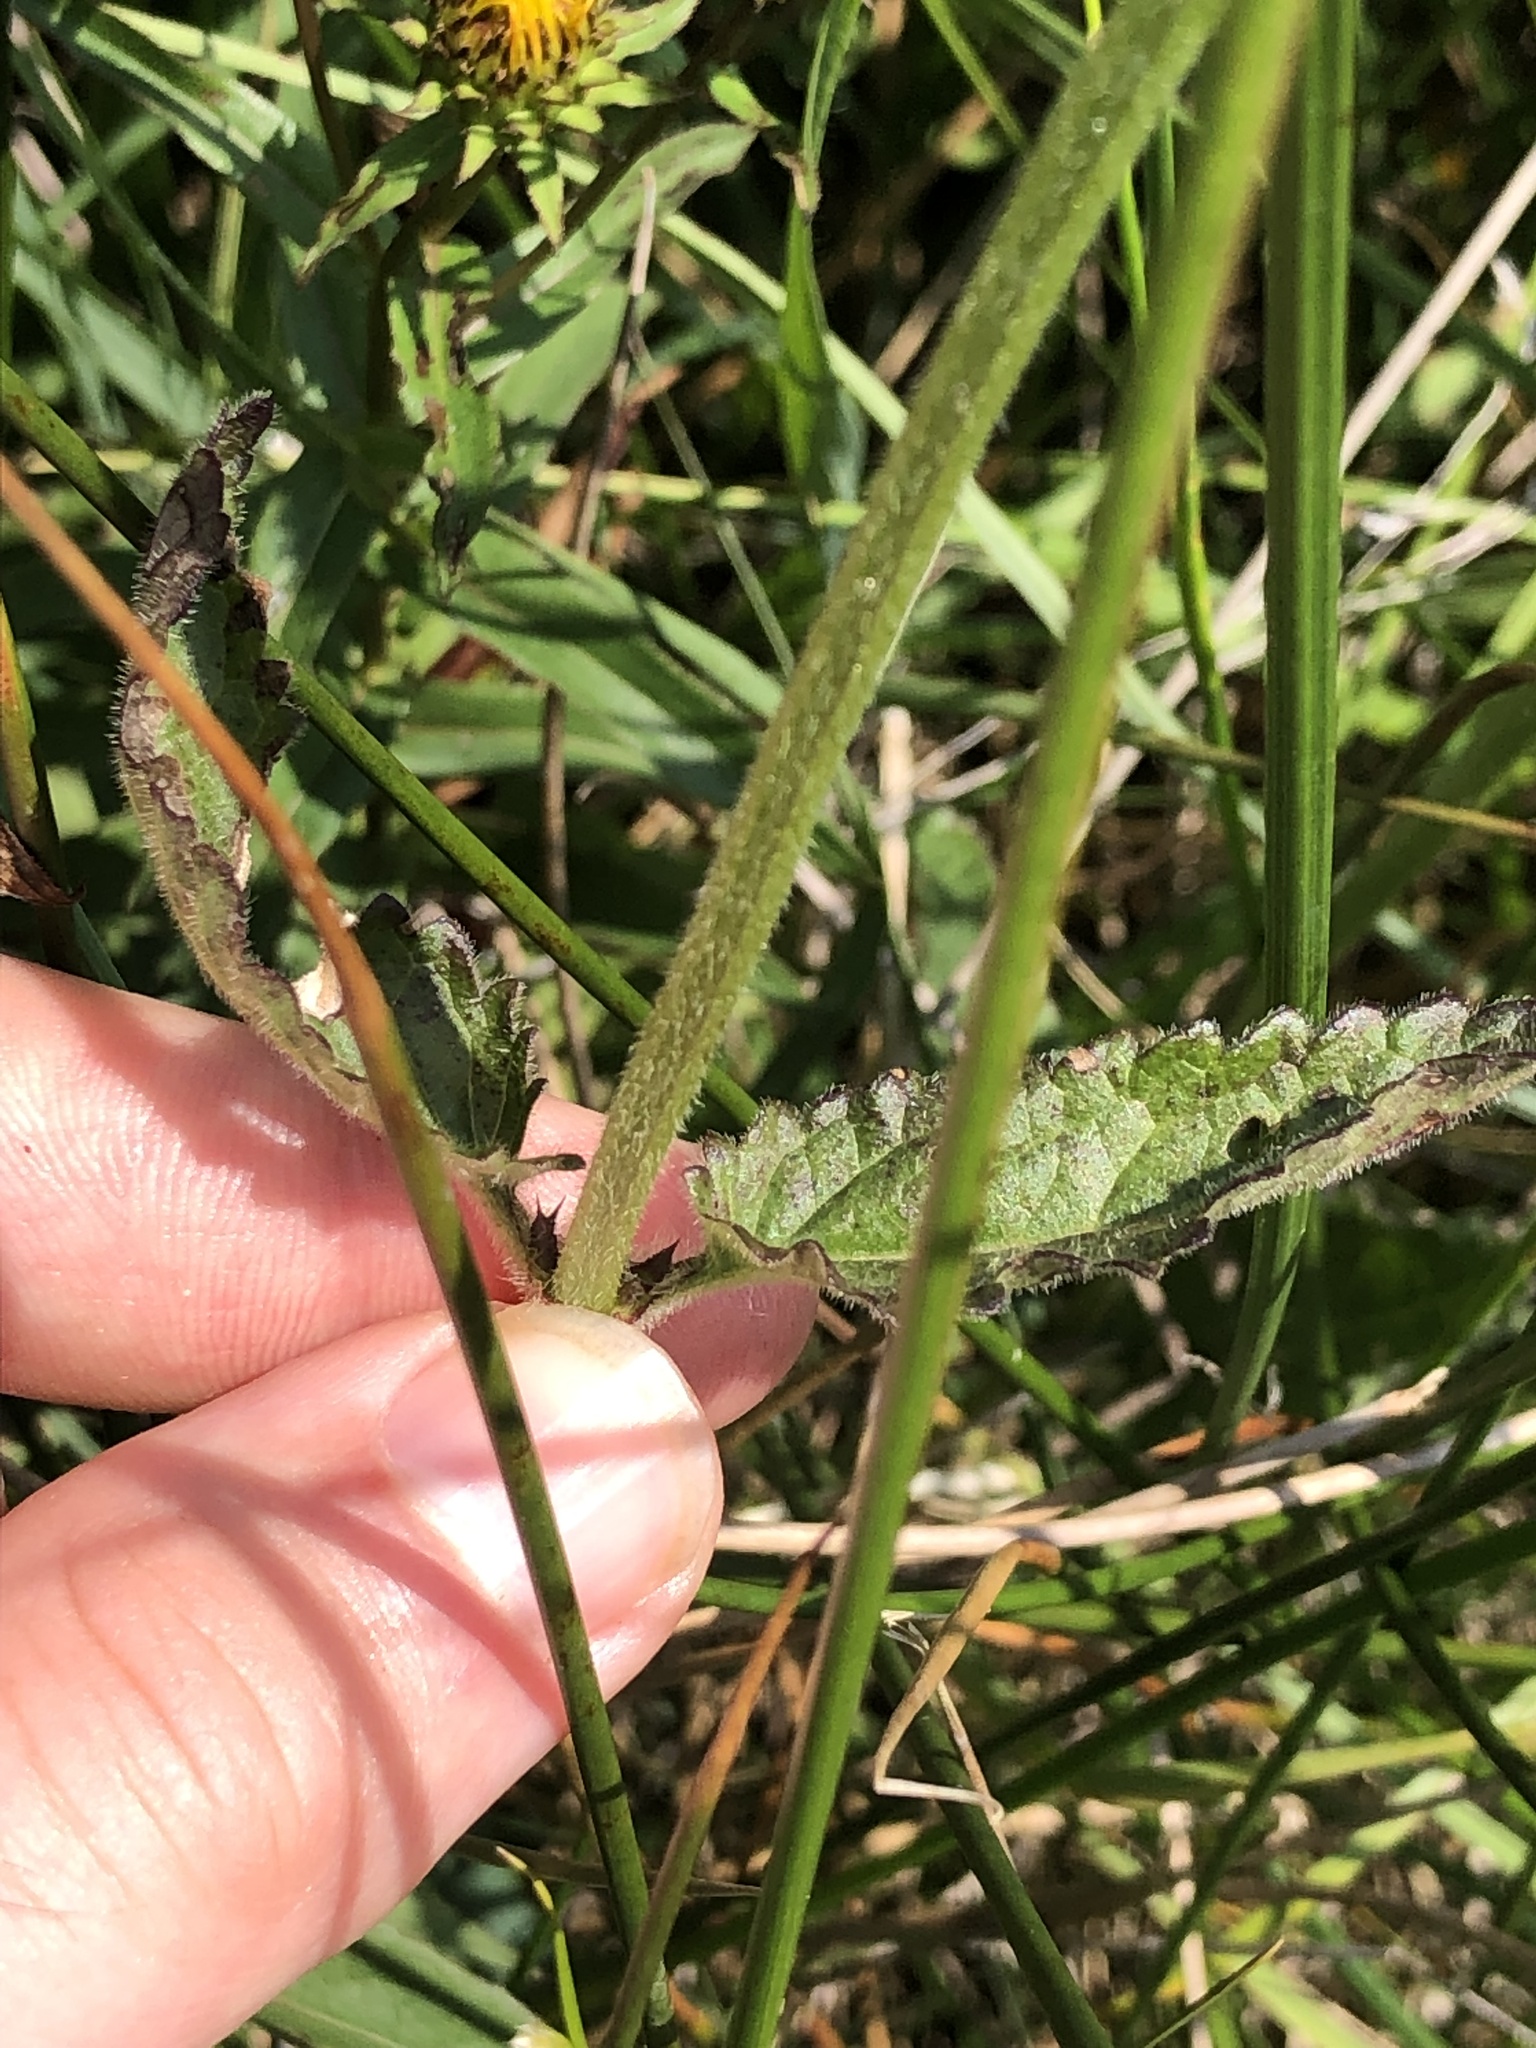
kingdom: Plantae
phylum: Tracheophyta
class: Magnoliopsida
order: Lamiales
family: Lamiaceae
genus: Betonica
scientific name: Betonica officinalis
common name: Bishop's-wort
